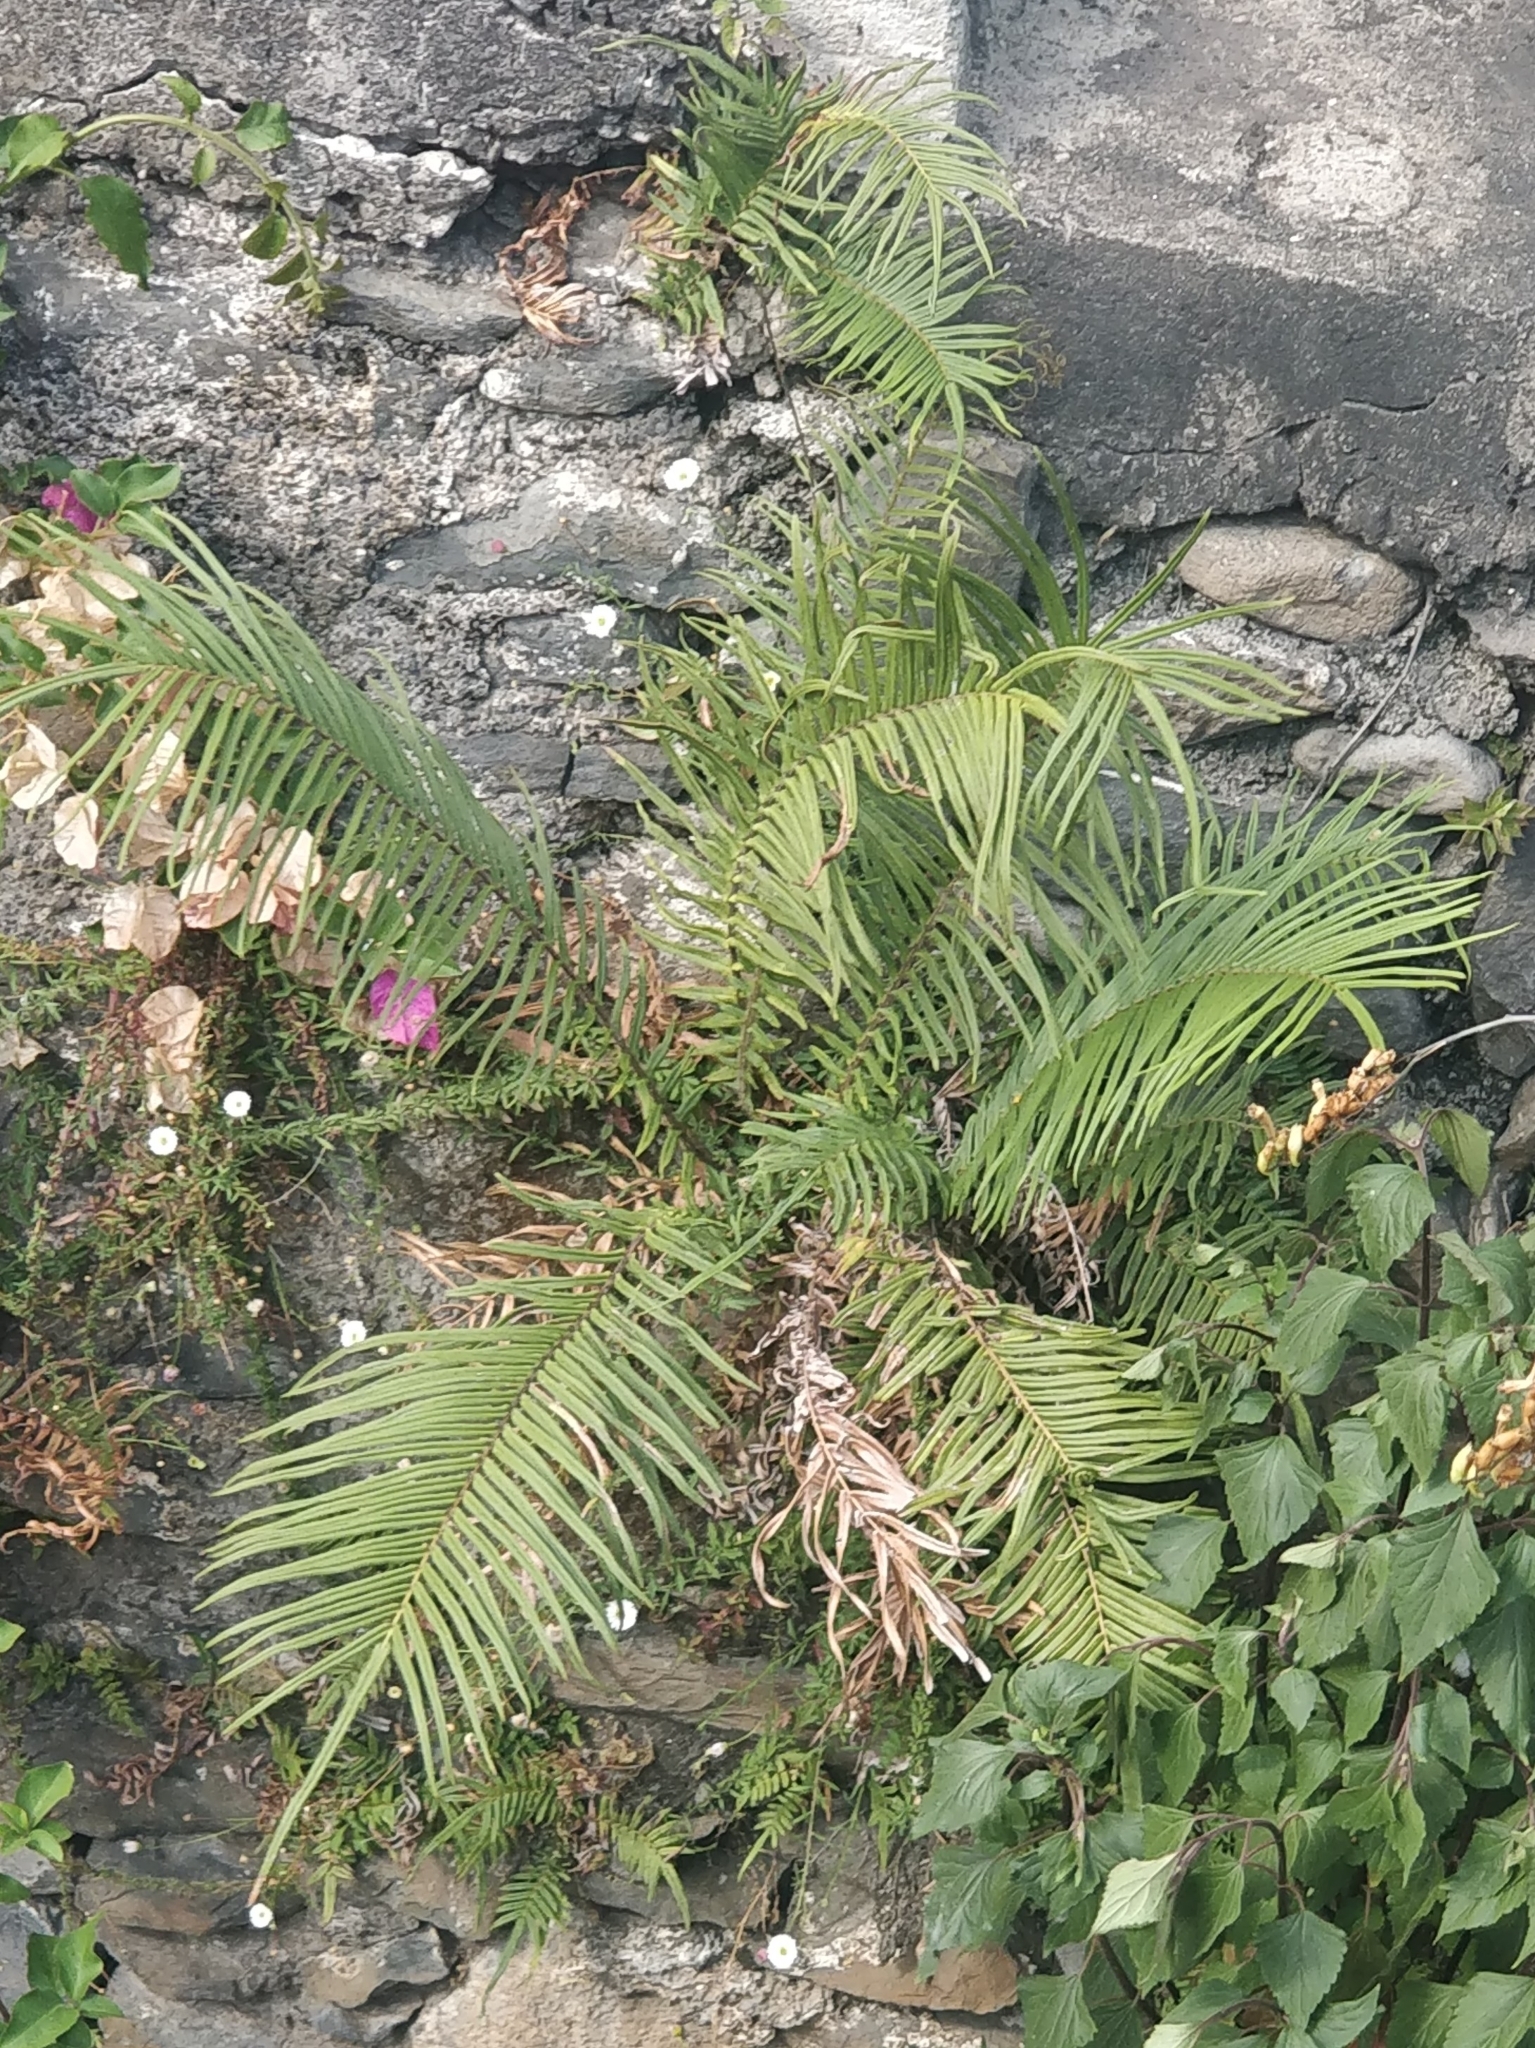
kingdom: Plantae
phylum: Tracheophyta
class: Polypodiopsida
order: Polypodiales
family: Pteridaceae
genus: Pteris
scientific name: Pteris vittata
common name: Ladder brake
